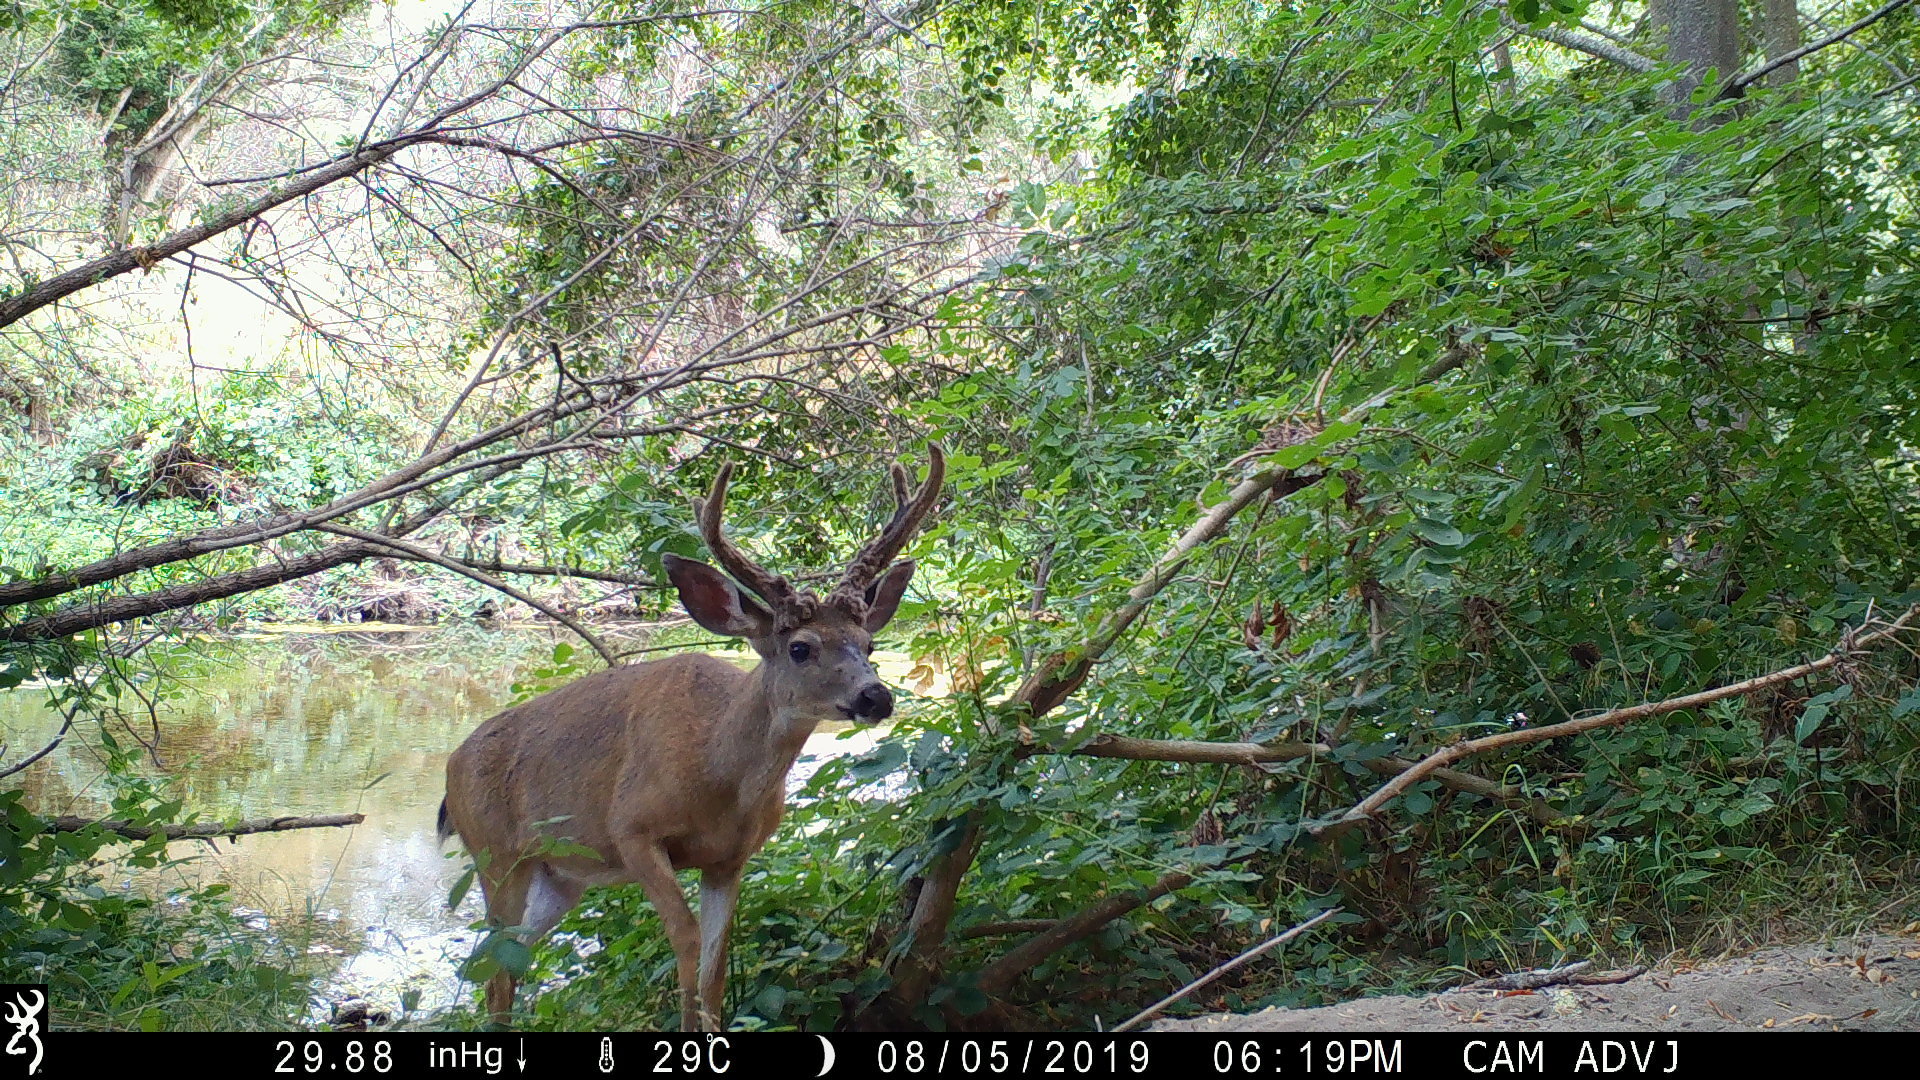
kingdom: Animalia
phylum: Chordata
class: Mammalia
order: Artiodactyla
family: Cervidae
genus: Odocoileus
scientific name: Odocoileus hemionus
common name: Mule deer
